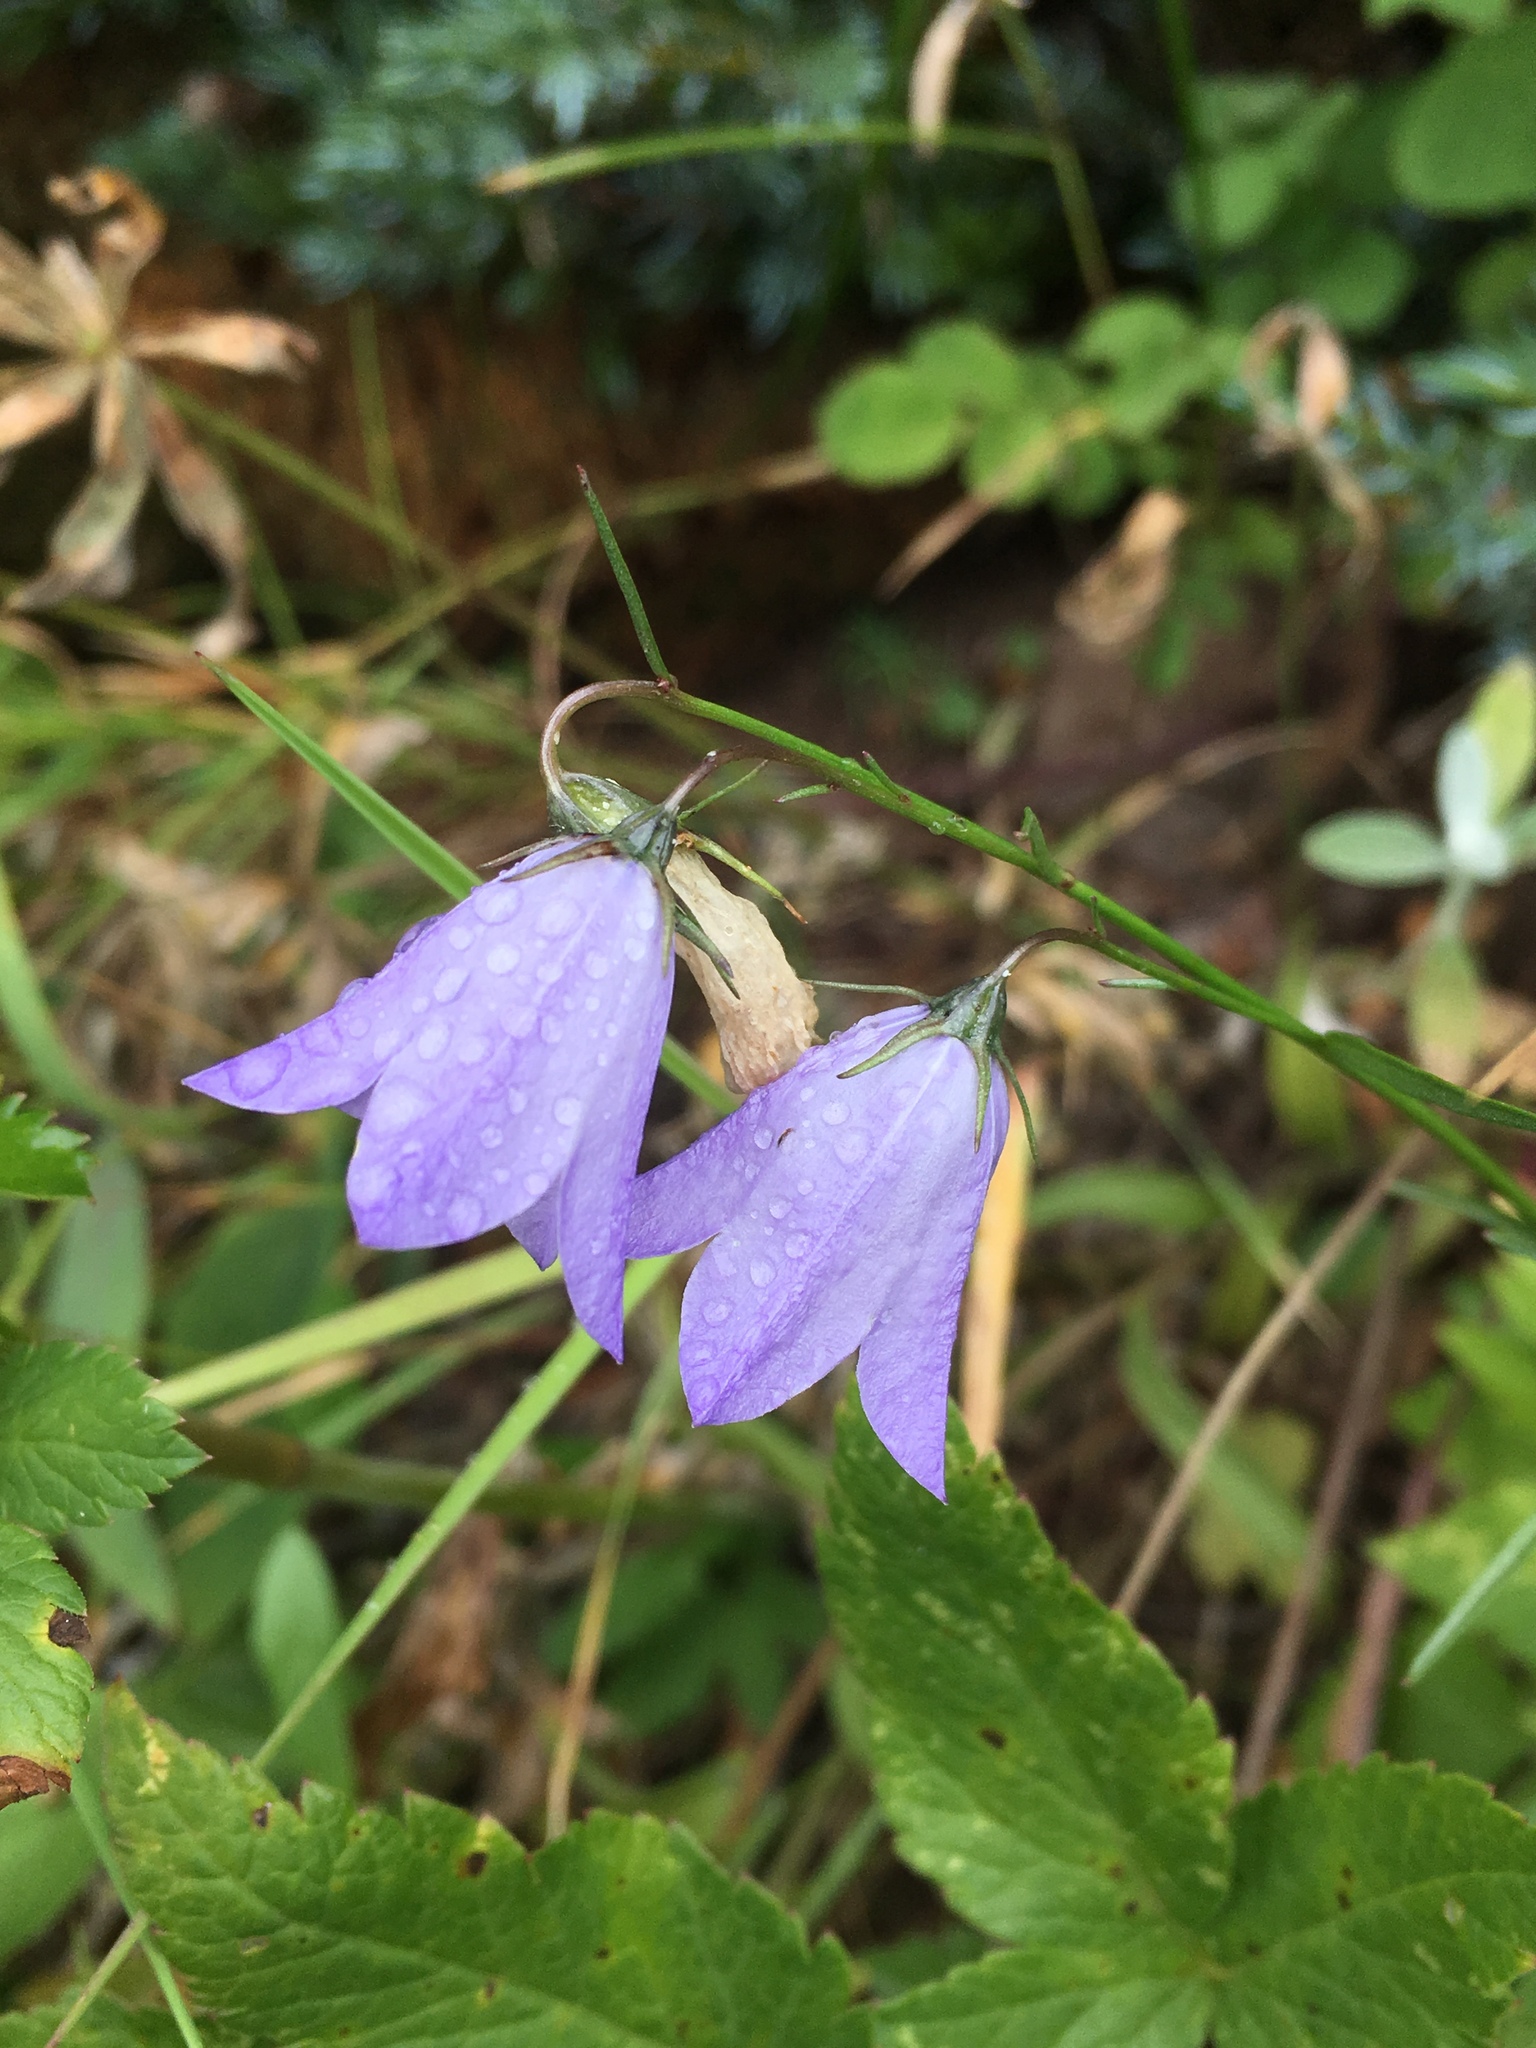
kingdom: Plantae
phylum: Tracheophyta
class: Magnoliopsida
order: Asterales
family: Campanulaceae
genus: Campanula
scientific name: Campanula petiolata
